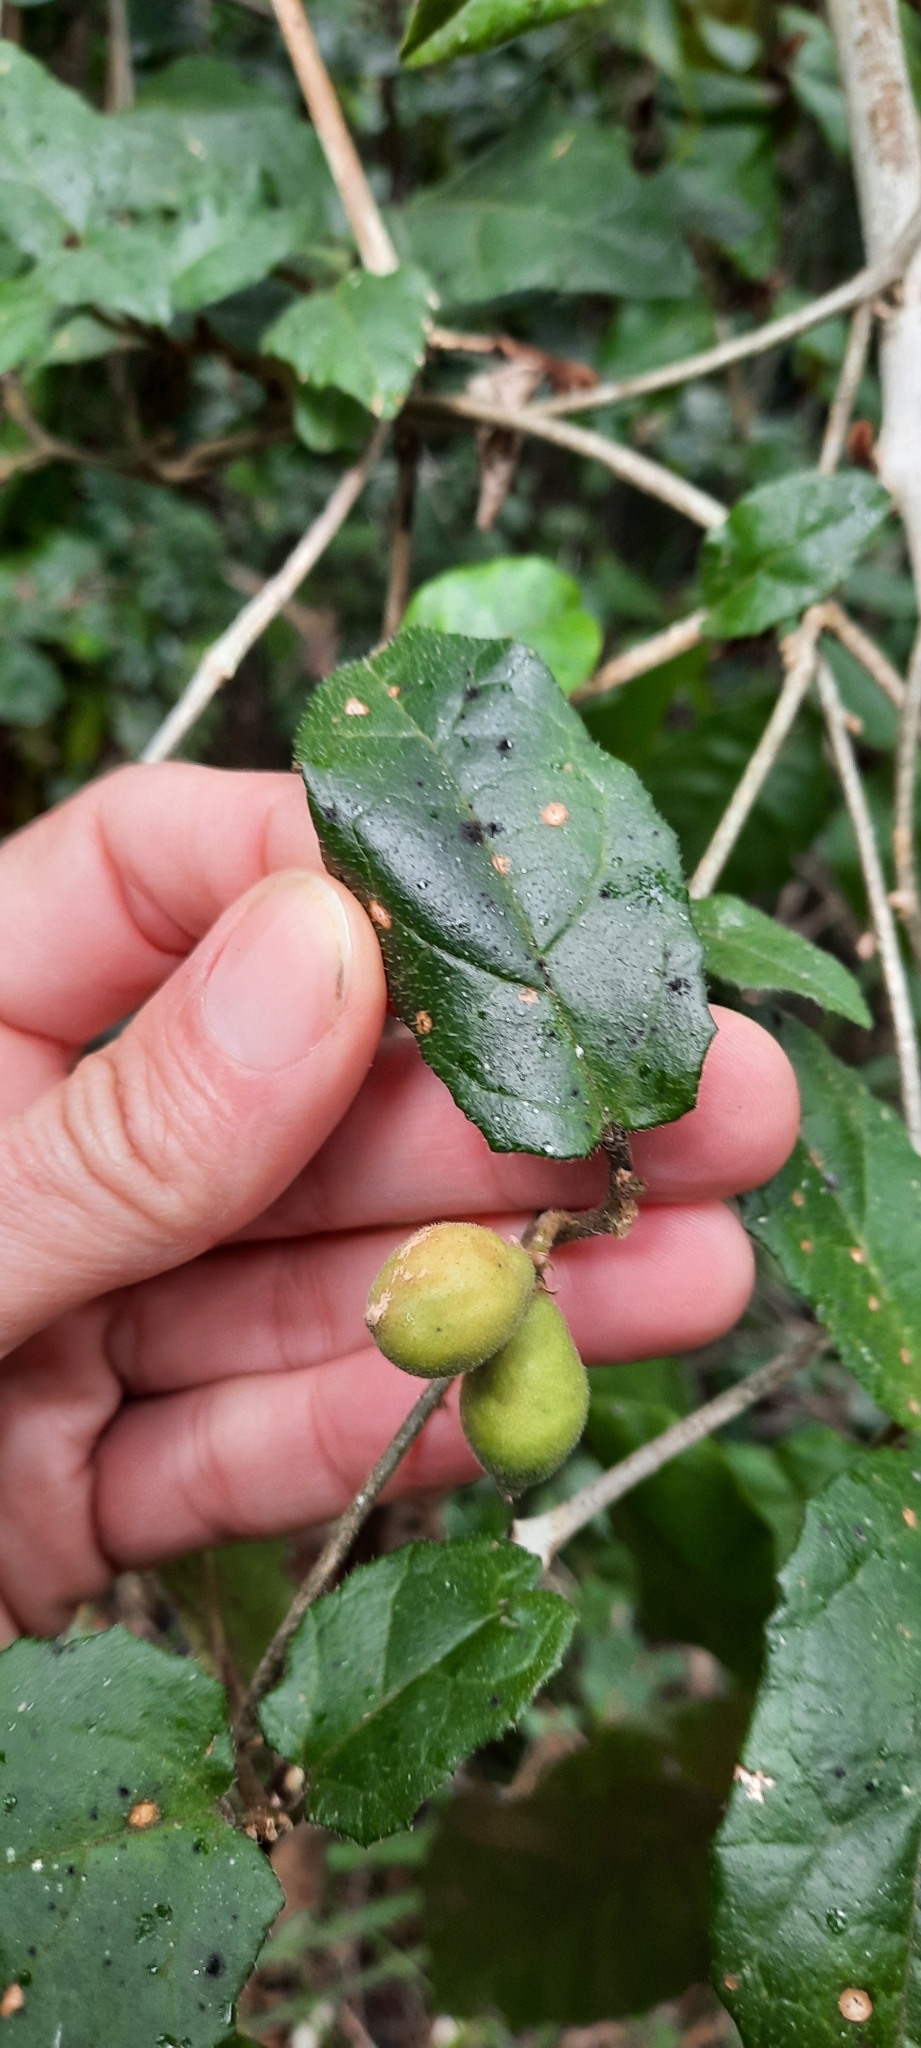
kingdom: Plantae
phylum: Tracheophyta
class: Magnoliopsida
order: Icacinales
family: Icacinaceae
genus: Pyrenacantha
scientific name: Pyrenacantha scandens
